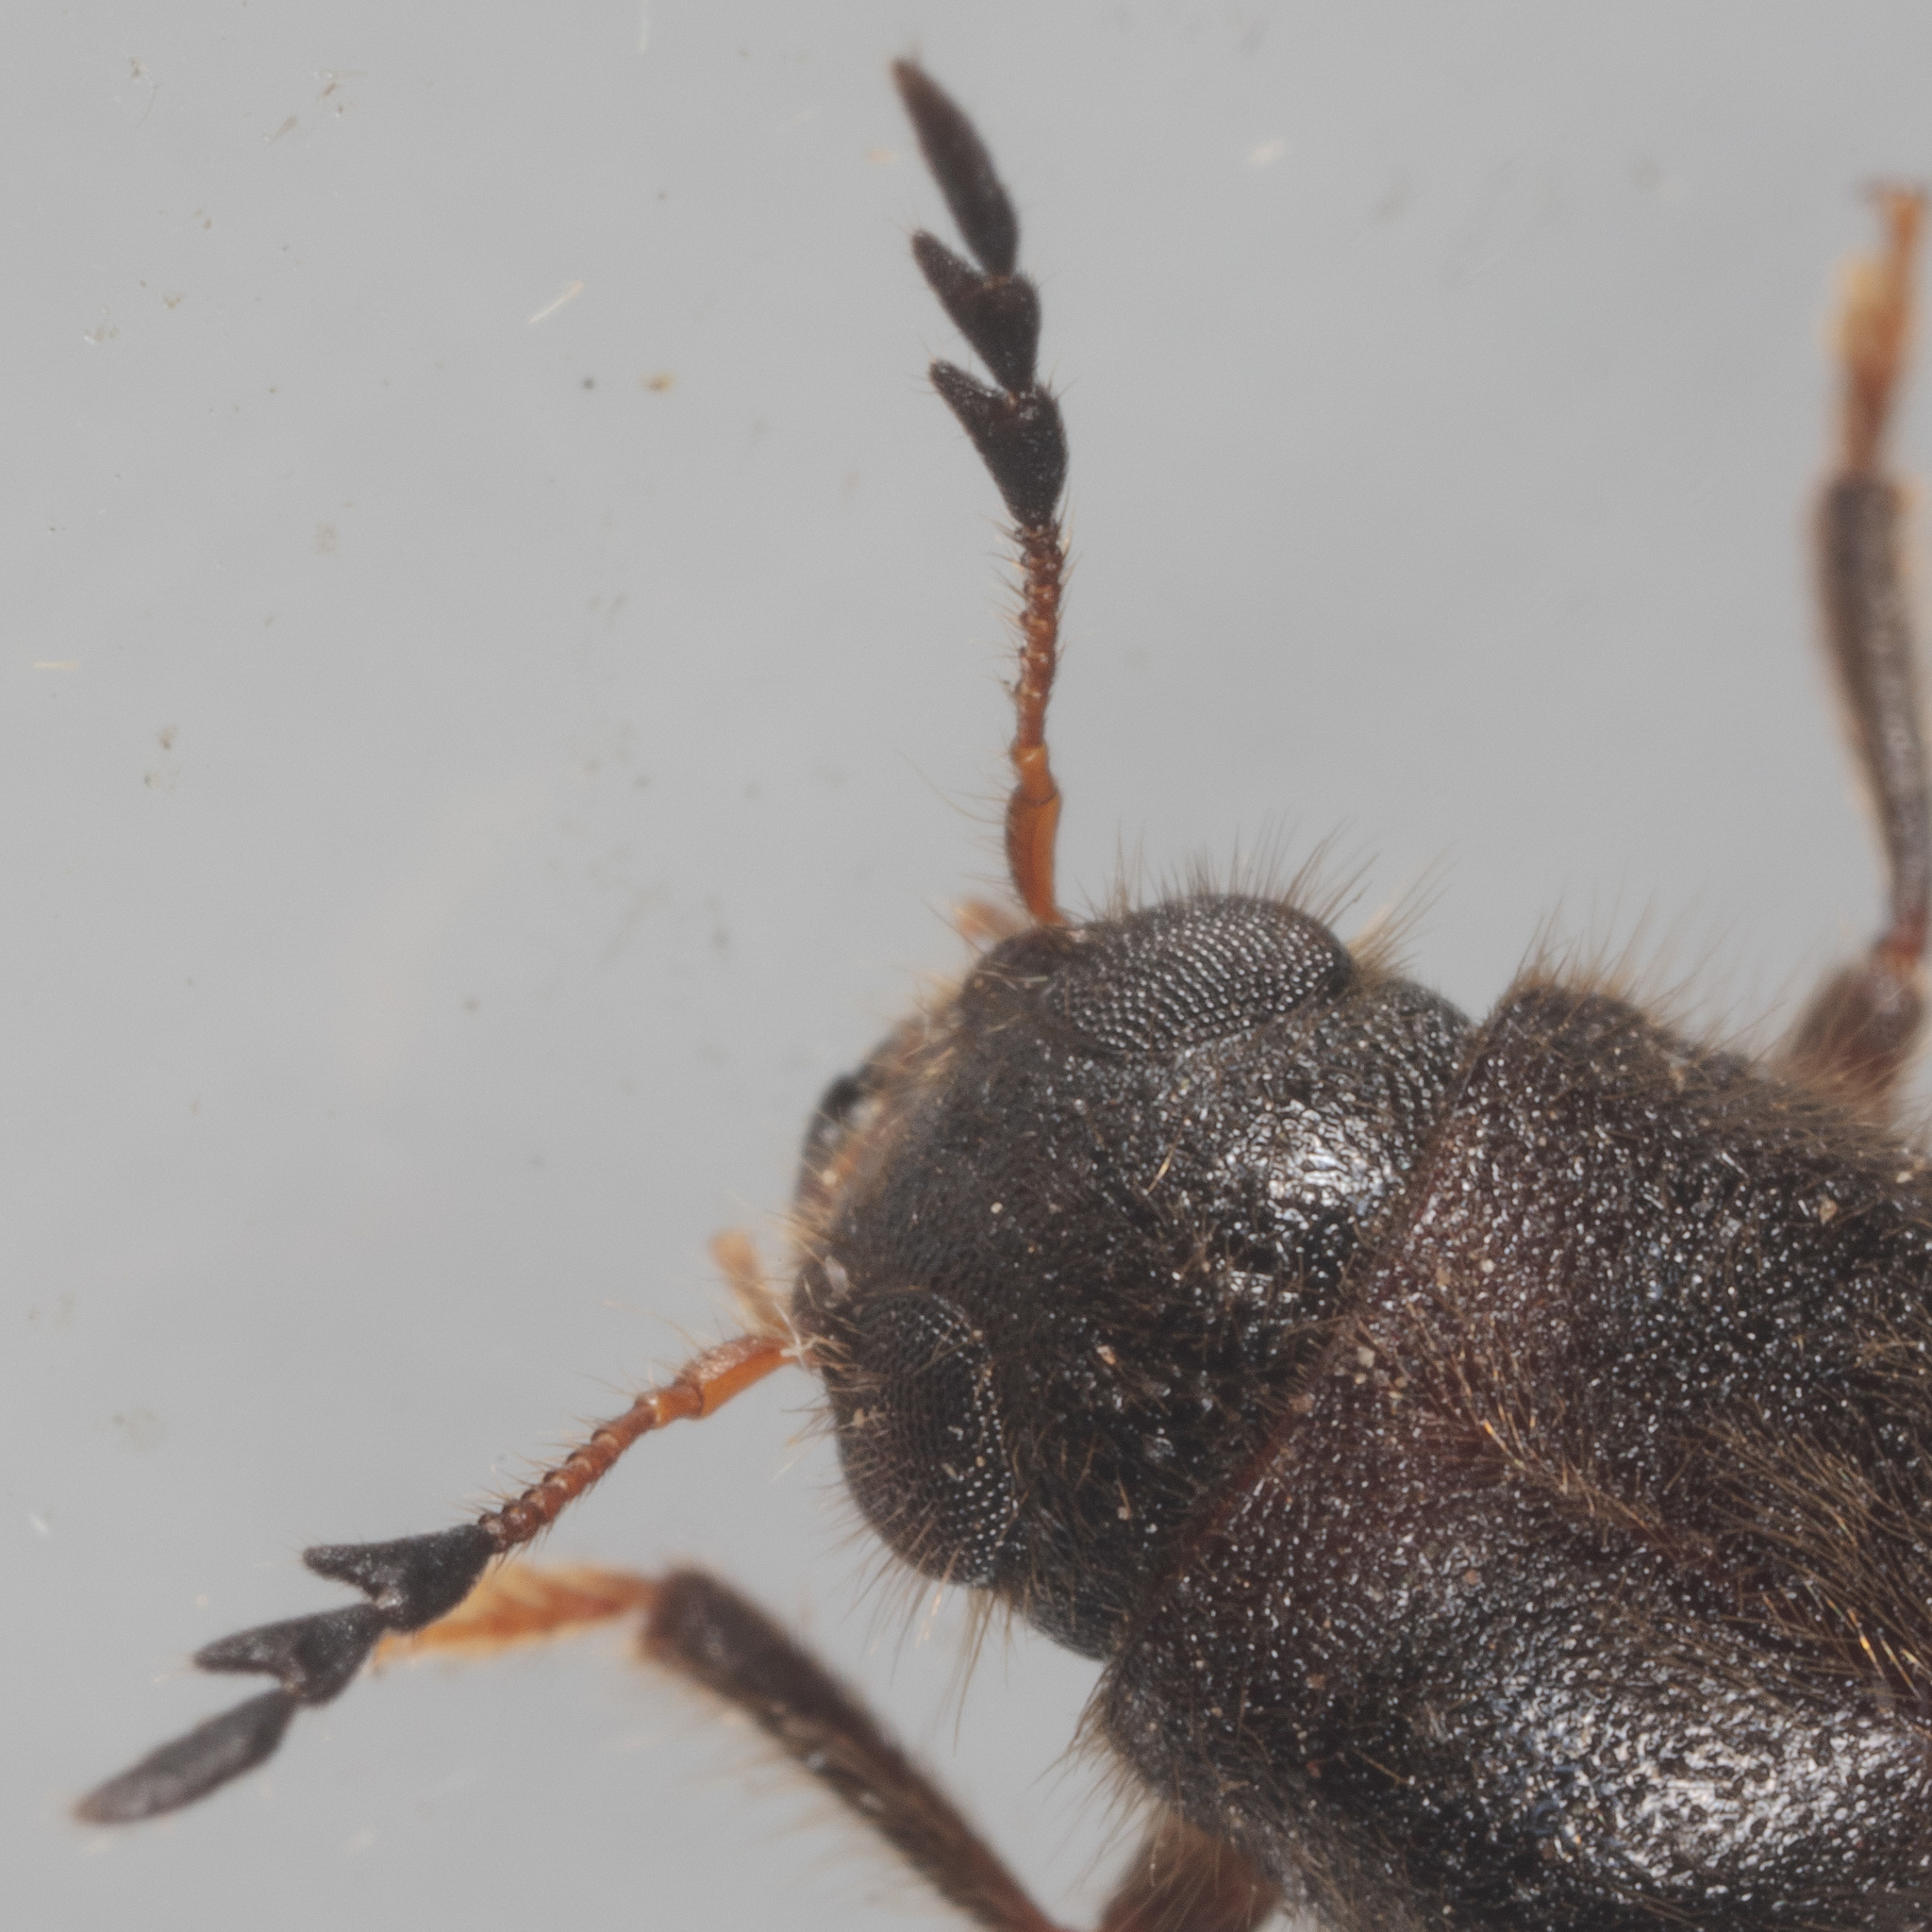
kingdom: Animalia
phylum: Arthropoda
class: Insecta
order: Coleoptera
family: Cleridae
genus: Neorthopleura
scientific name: Neorthopleura texana
